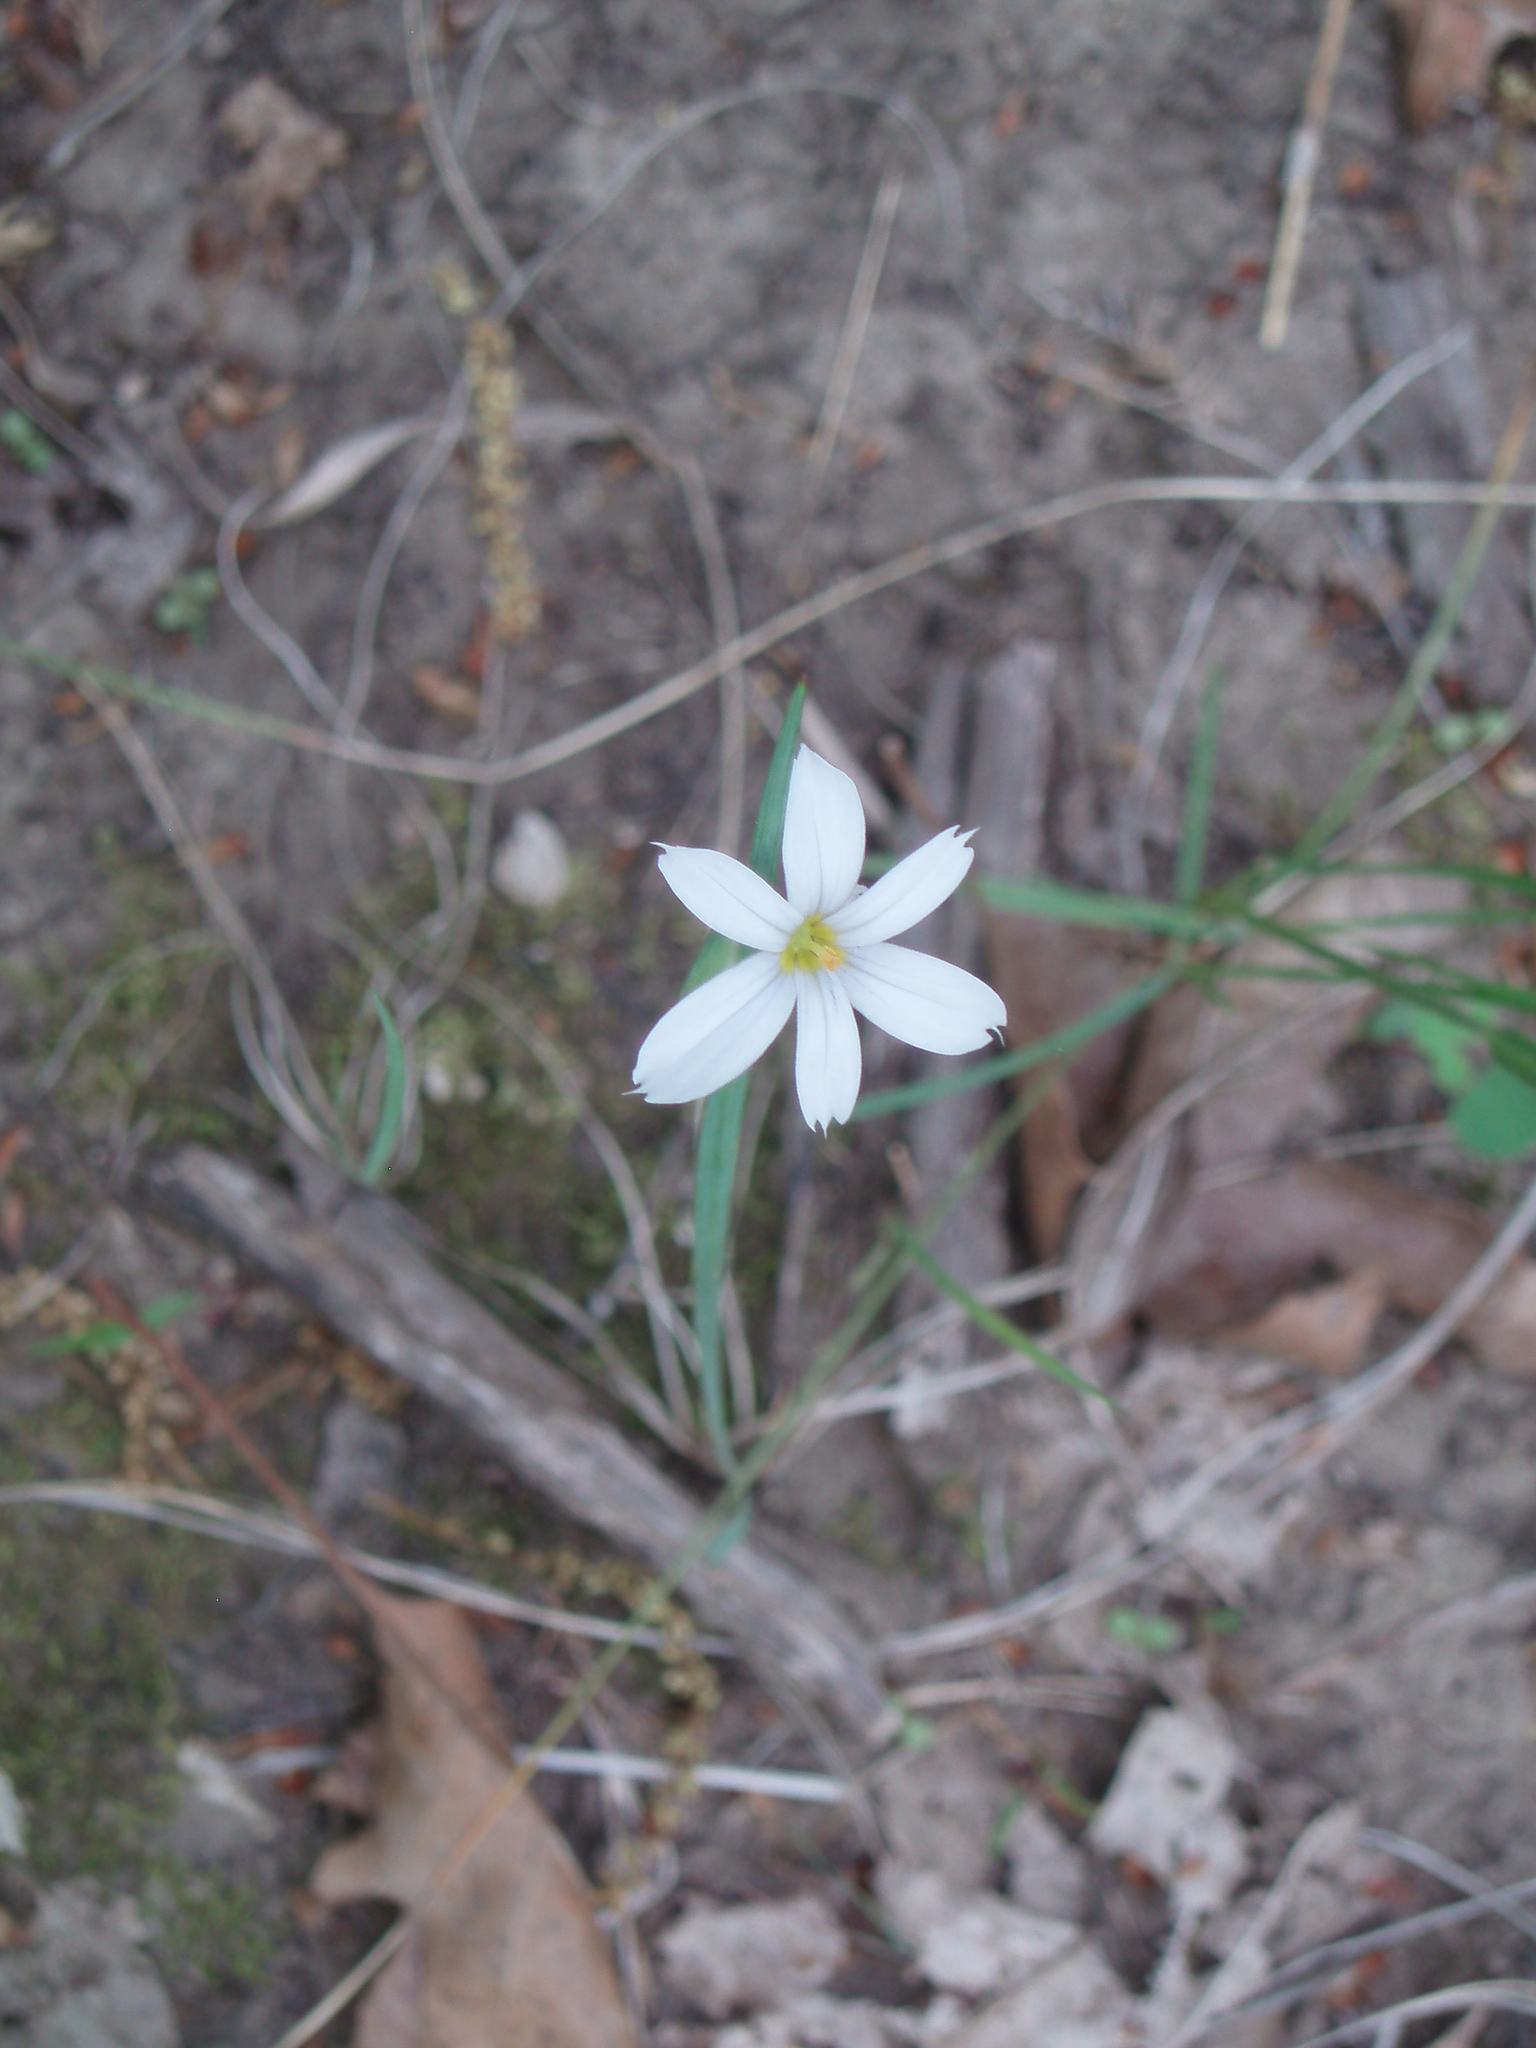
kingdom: Plantae
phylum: Tracheophyta
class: Liliopsida
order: Asparagales
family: Iridaceae
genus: Sisyrinchium
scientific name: Sisyrinchium campestre
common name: Prairie blue-eyed-grass
